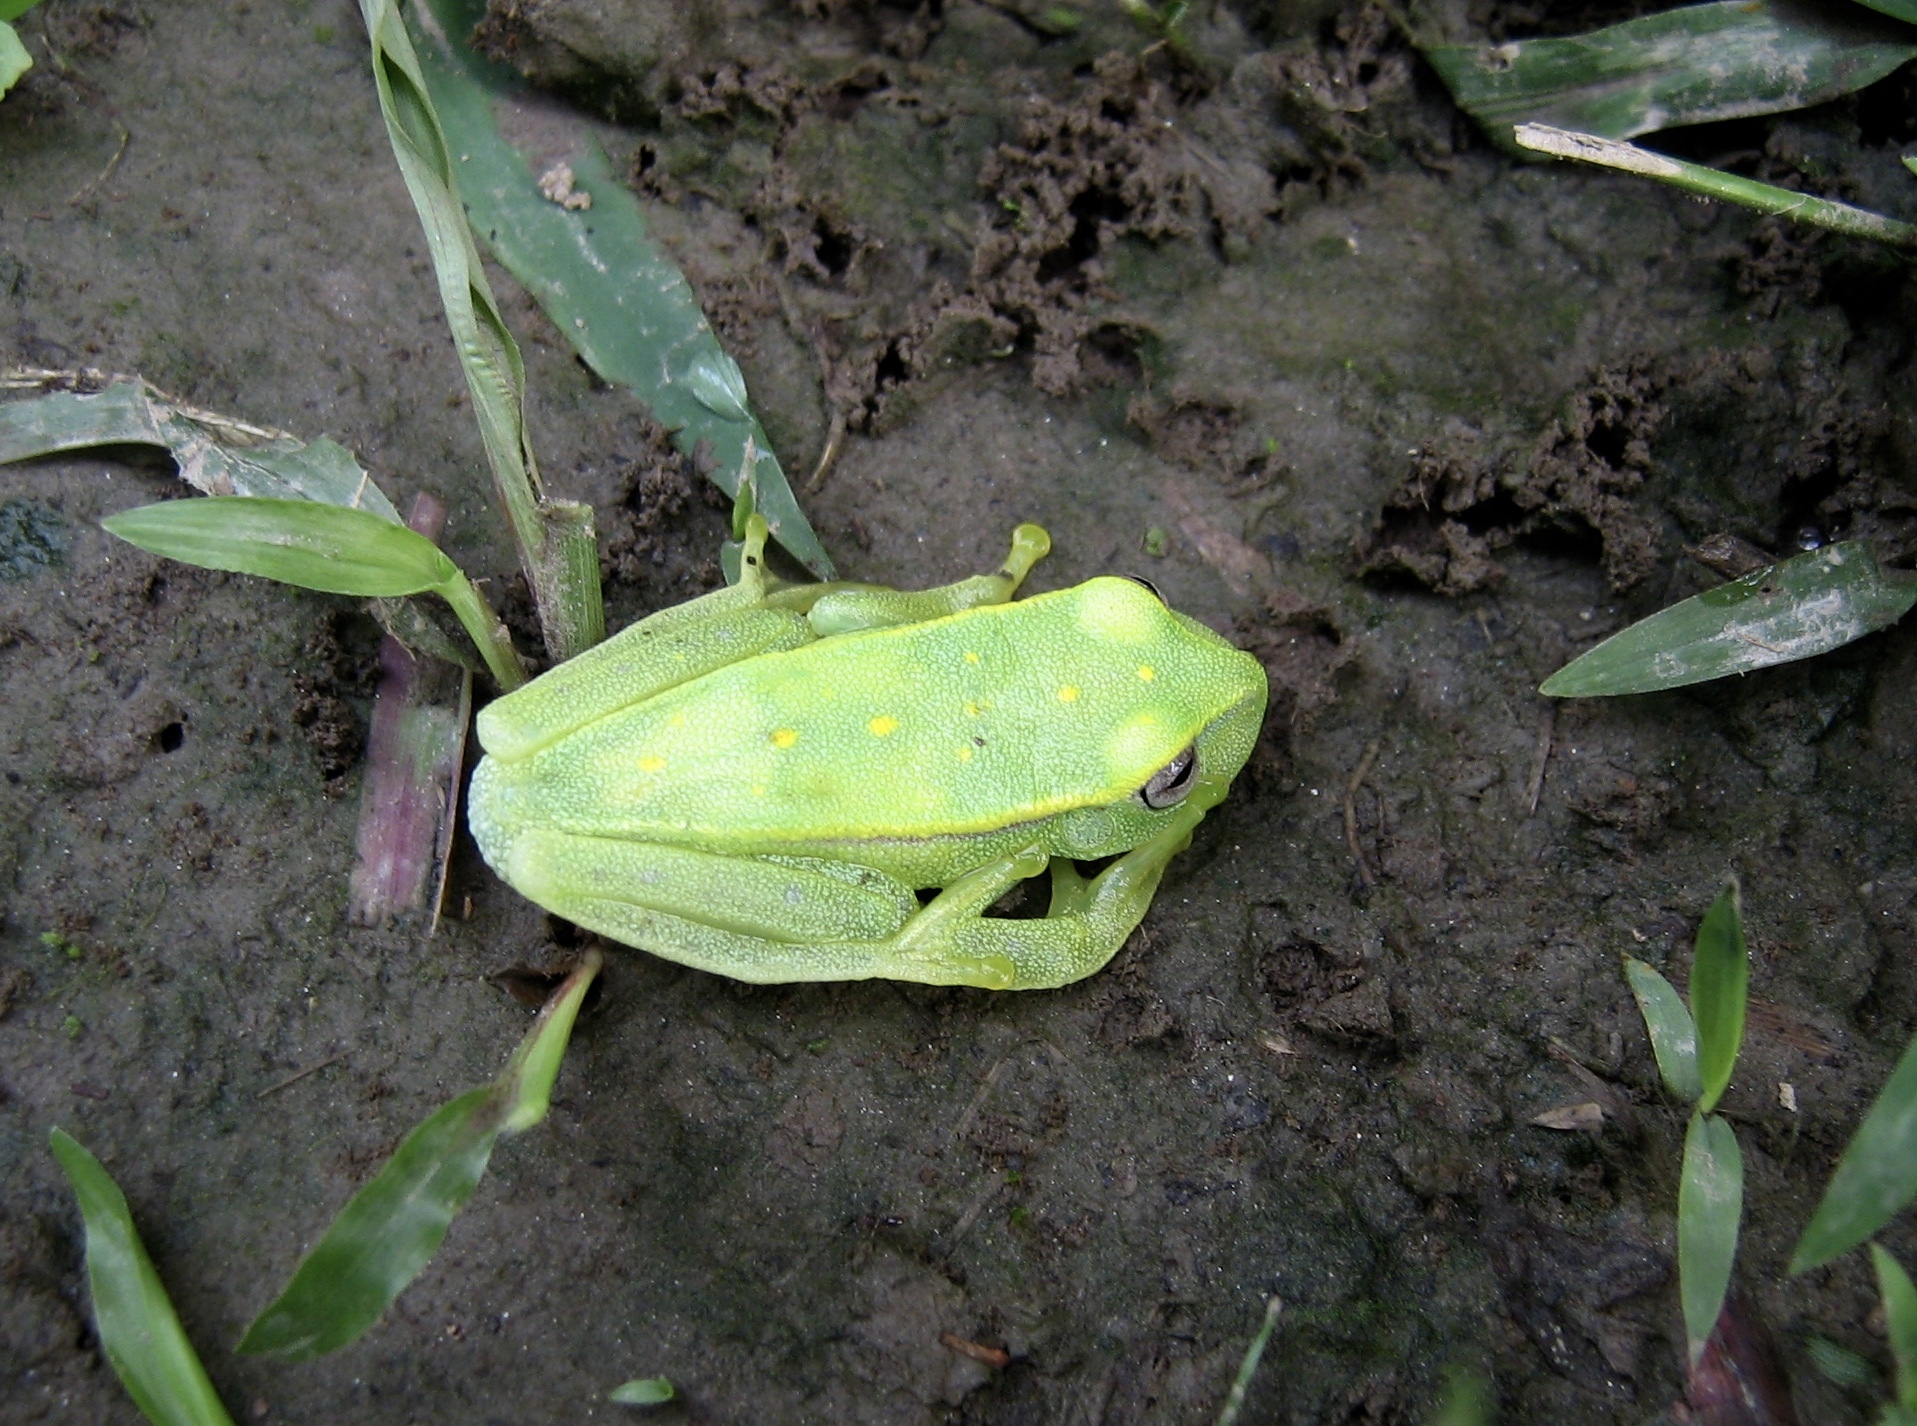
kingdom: Animalia
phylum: Chordata
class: Amphibia
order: Anura
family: Hylidae
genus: Boana
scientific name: Boana punctata
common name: Polka-dot treefrog
